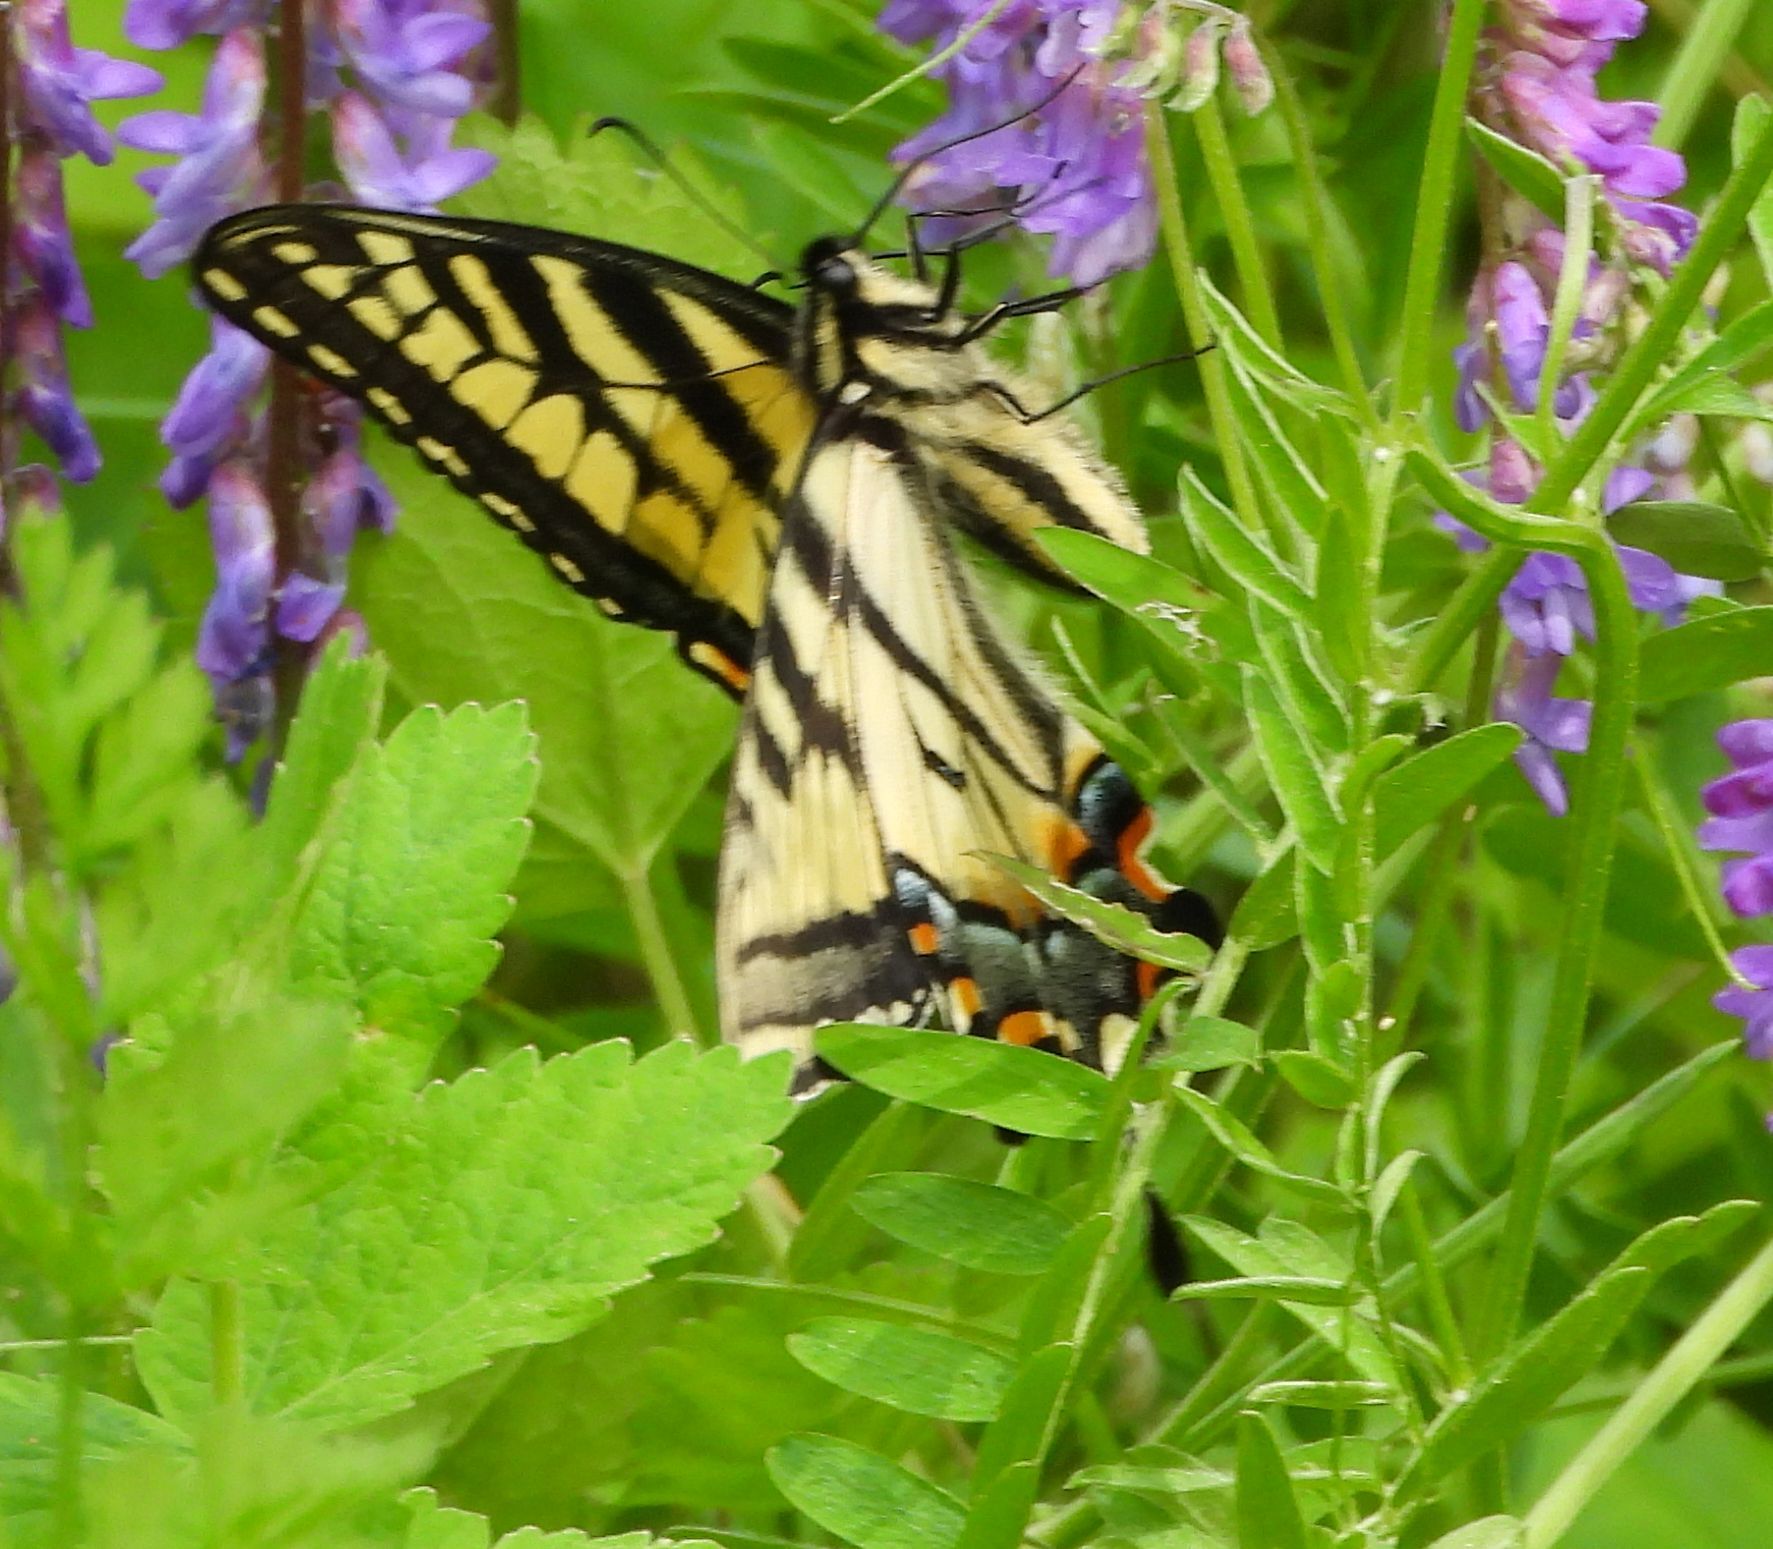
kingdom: Animalia
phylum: Arthropoda
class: Insecta
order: Lepidoptera
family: Papilionidae
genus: Papilio
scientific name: Papilio canadensis
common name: Canadian tiger swallowtail
